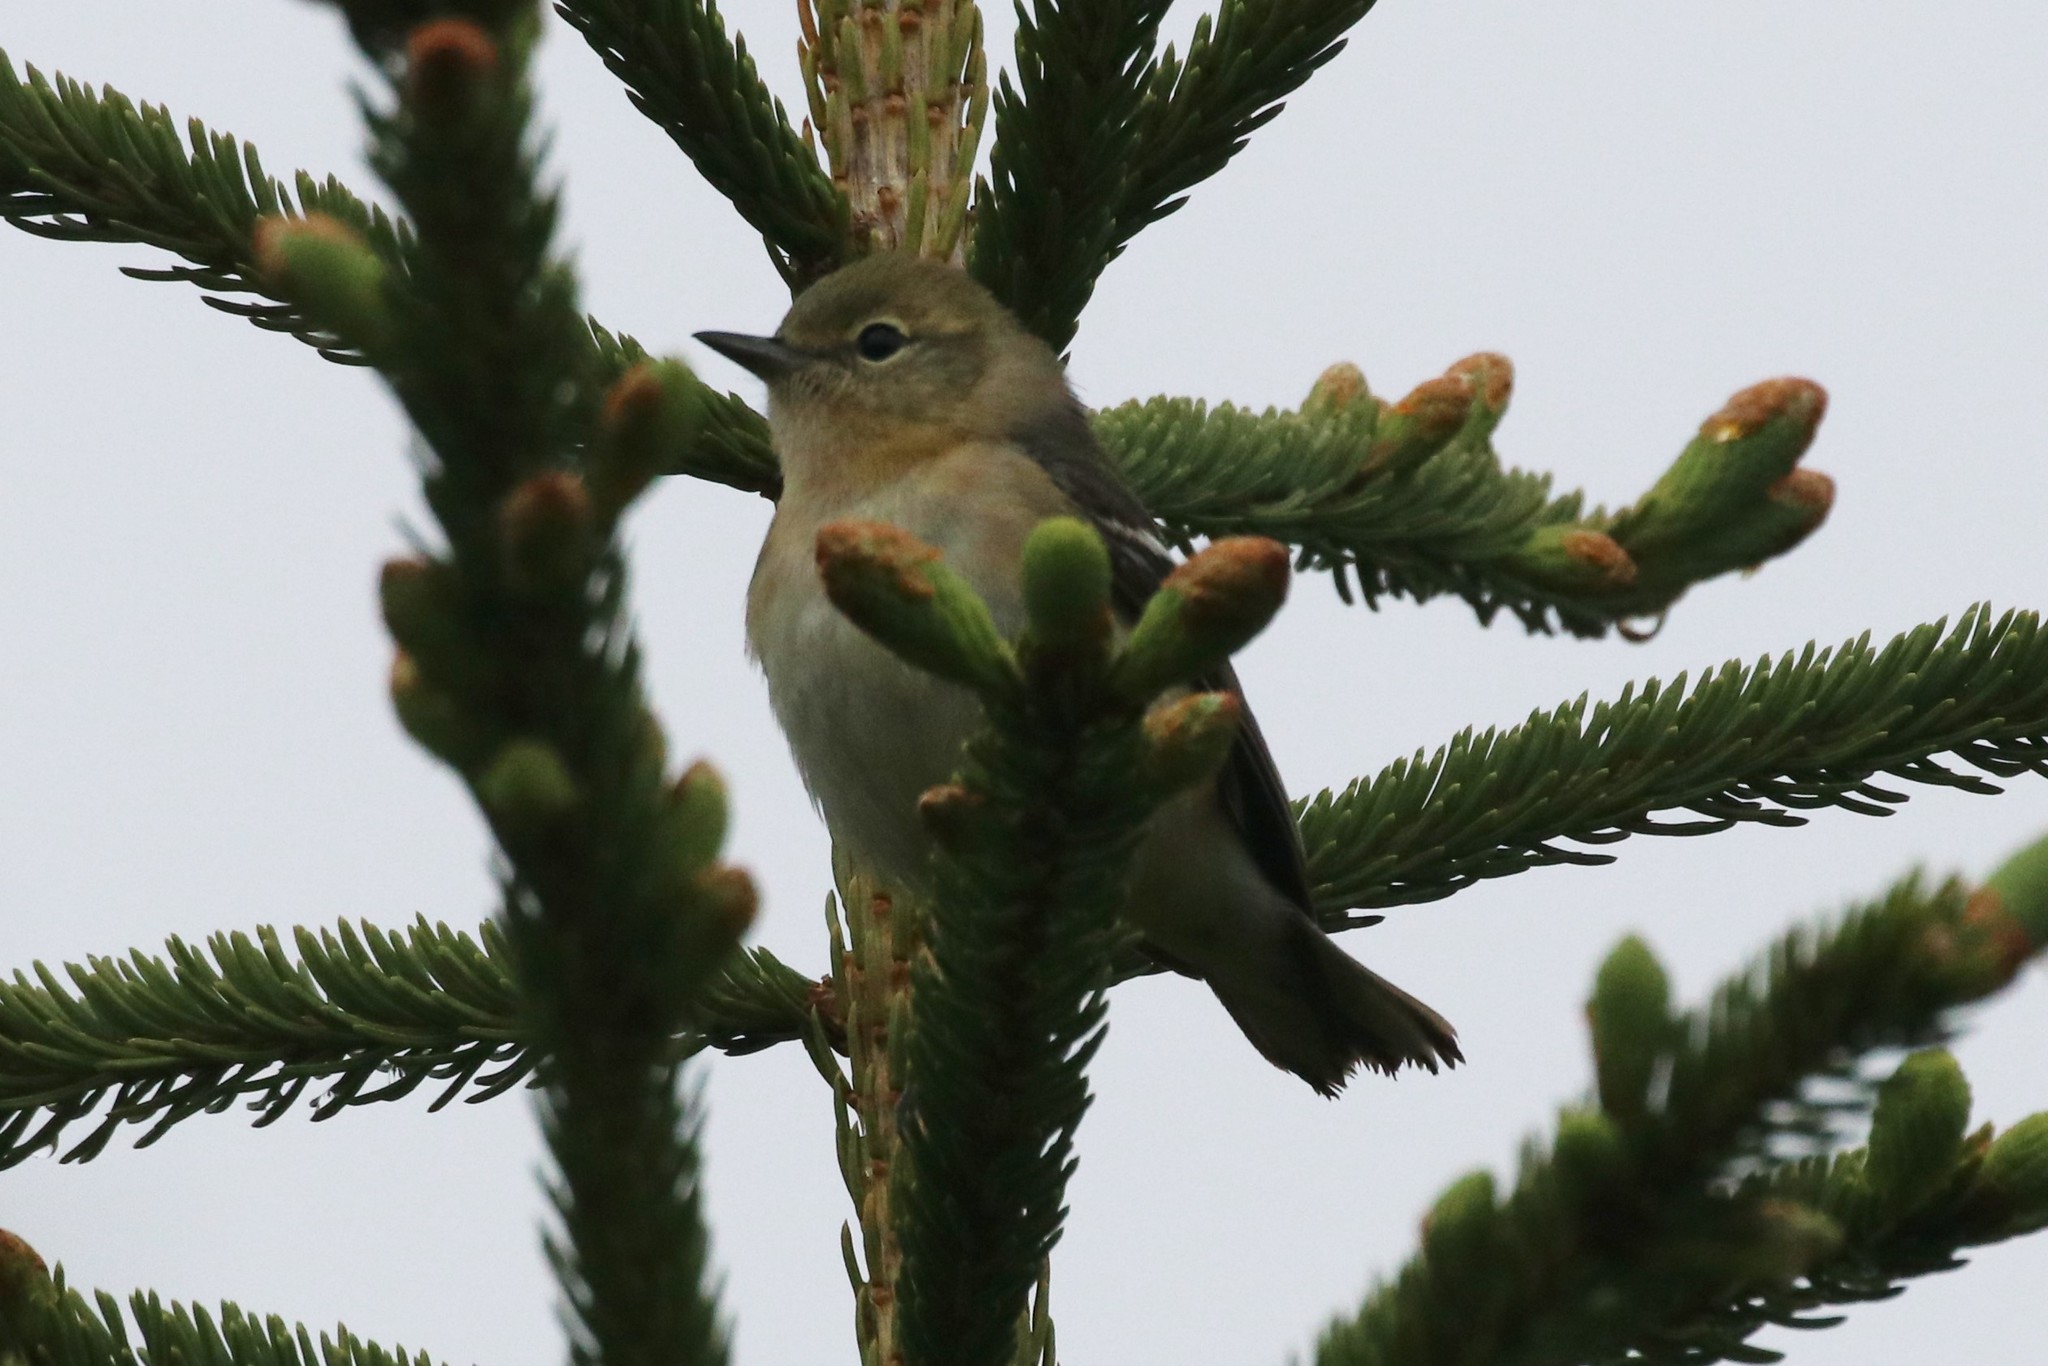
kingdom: Animalia
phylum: Chordata
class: Aves
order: Passeriformes
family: Parulidae
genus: Setophaga
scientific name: Setophaga castanea
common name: Bay-breasted warbler
